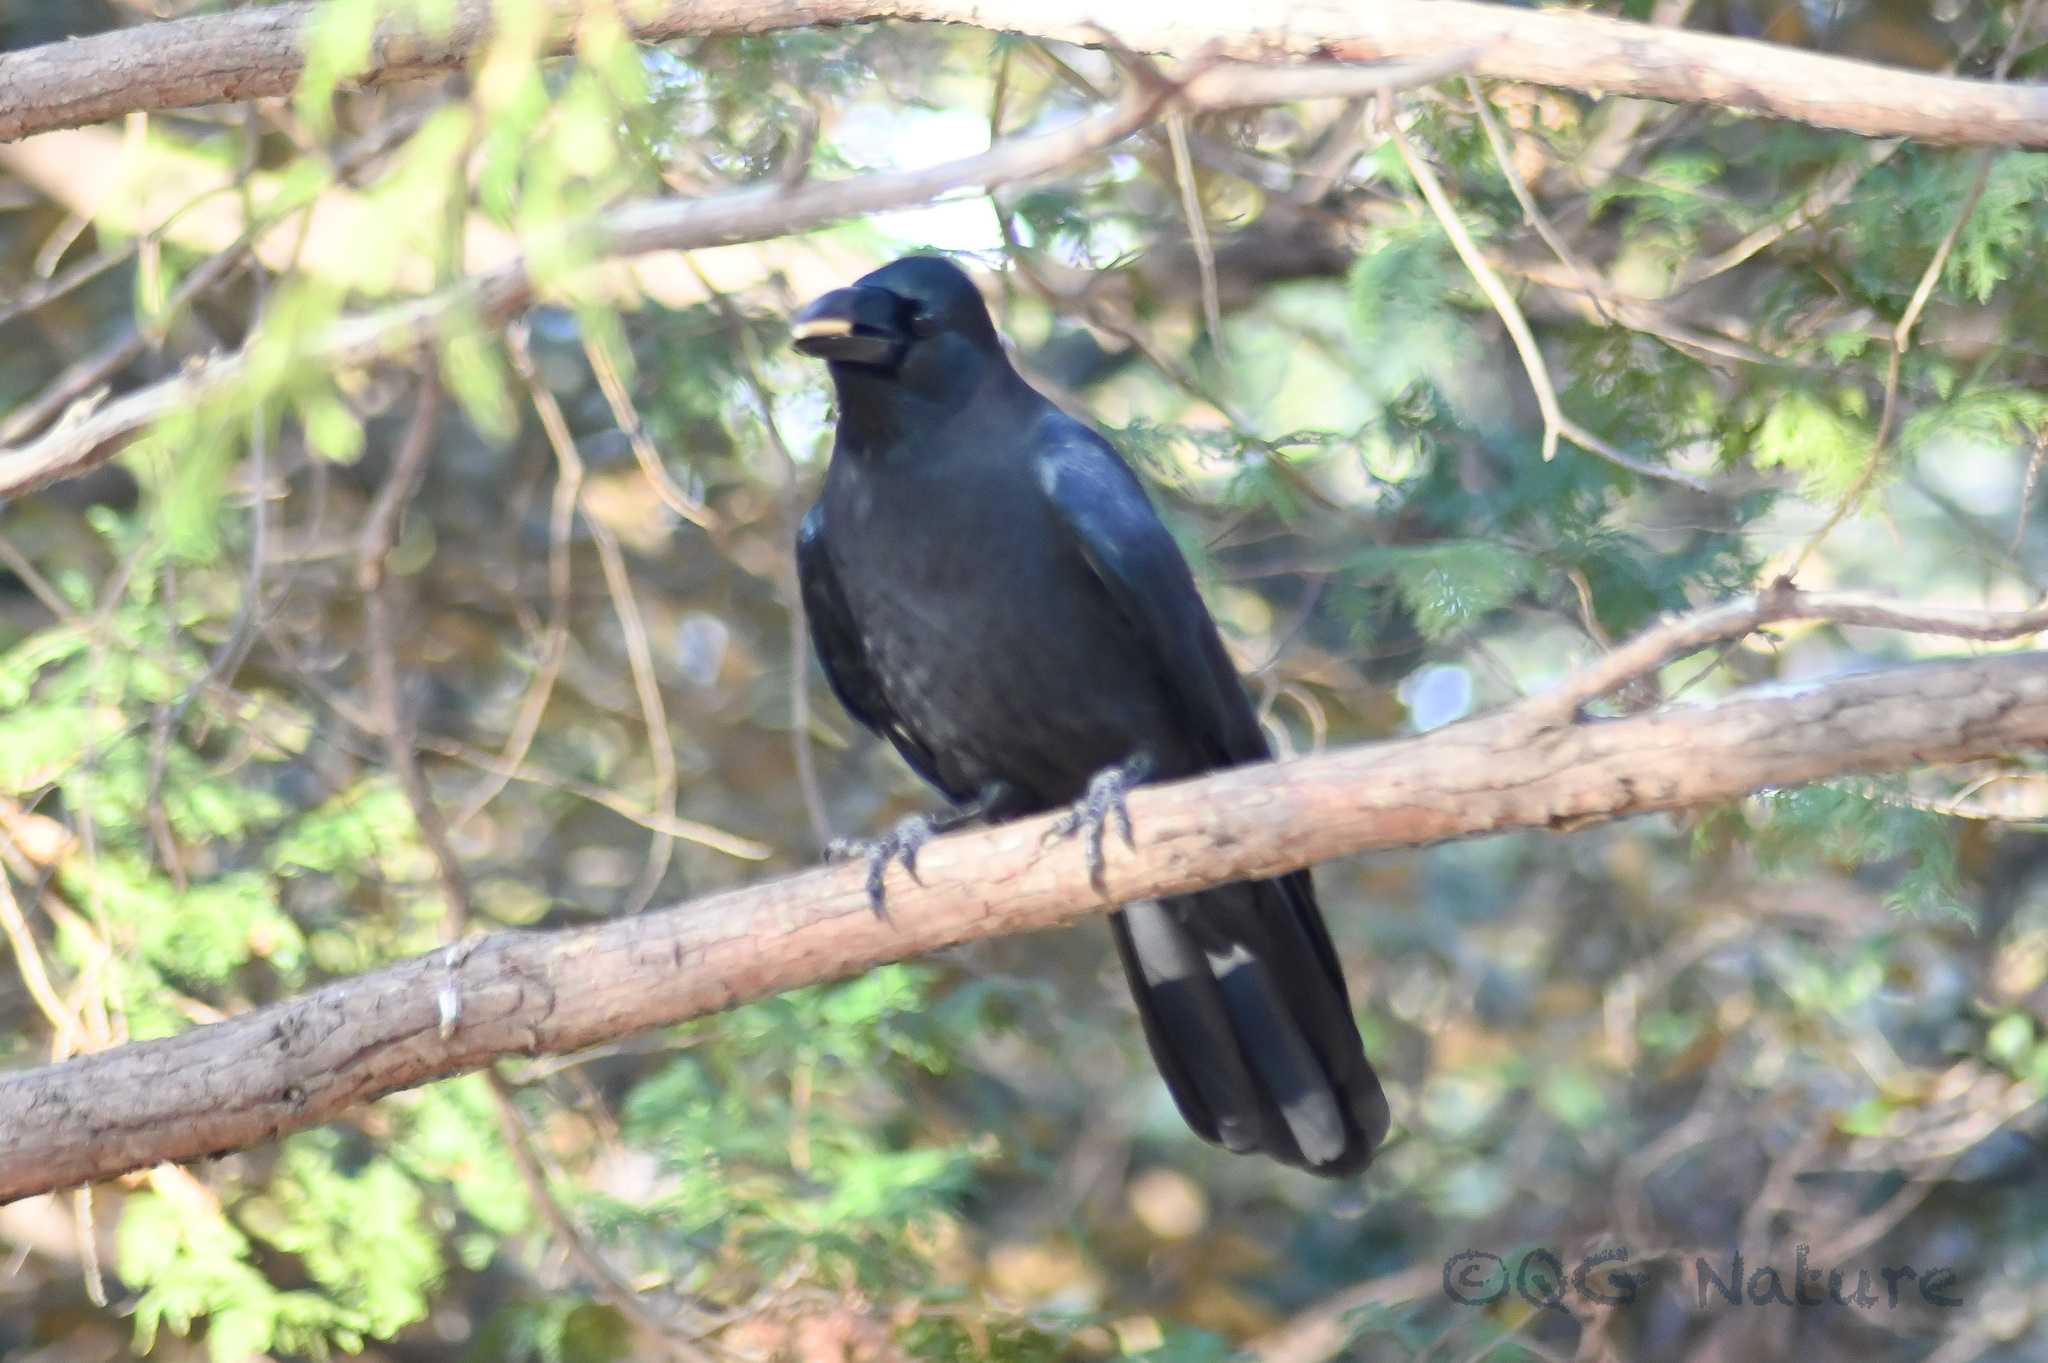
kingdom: Animalia
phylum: Chordata
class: Aves
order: Passeriformes
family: Corvidae
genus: Corvus
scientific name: Corvus macrorhynchos
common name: Large-billed crow
